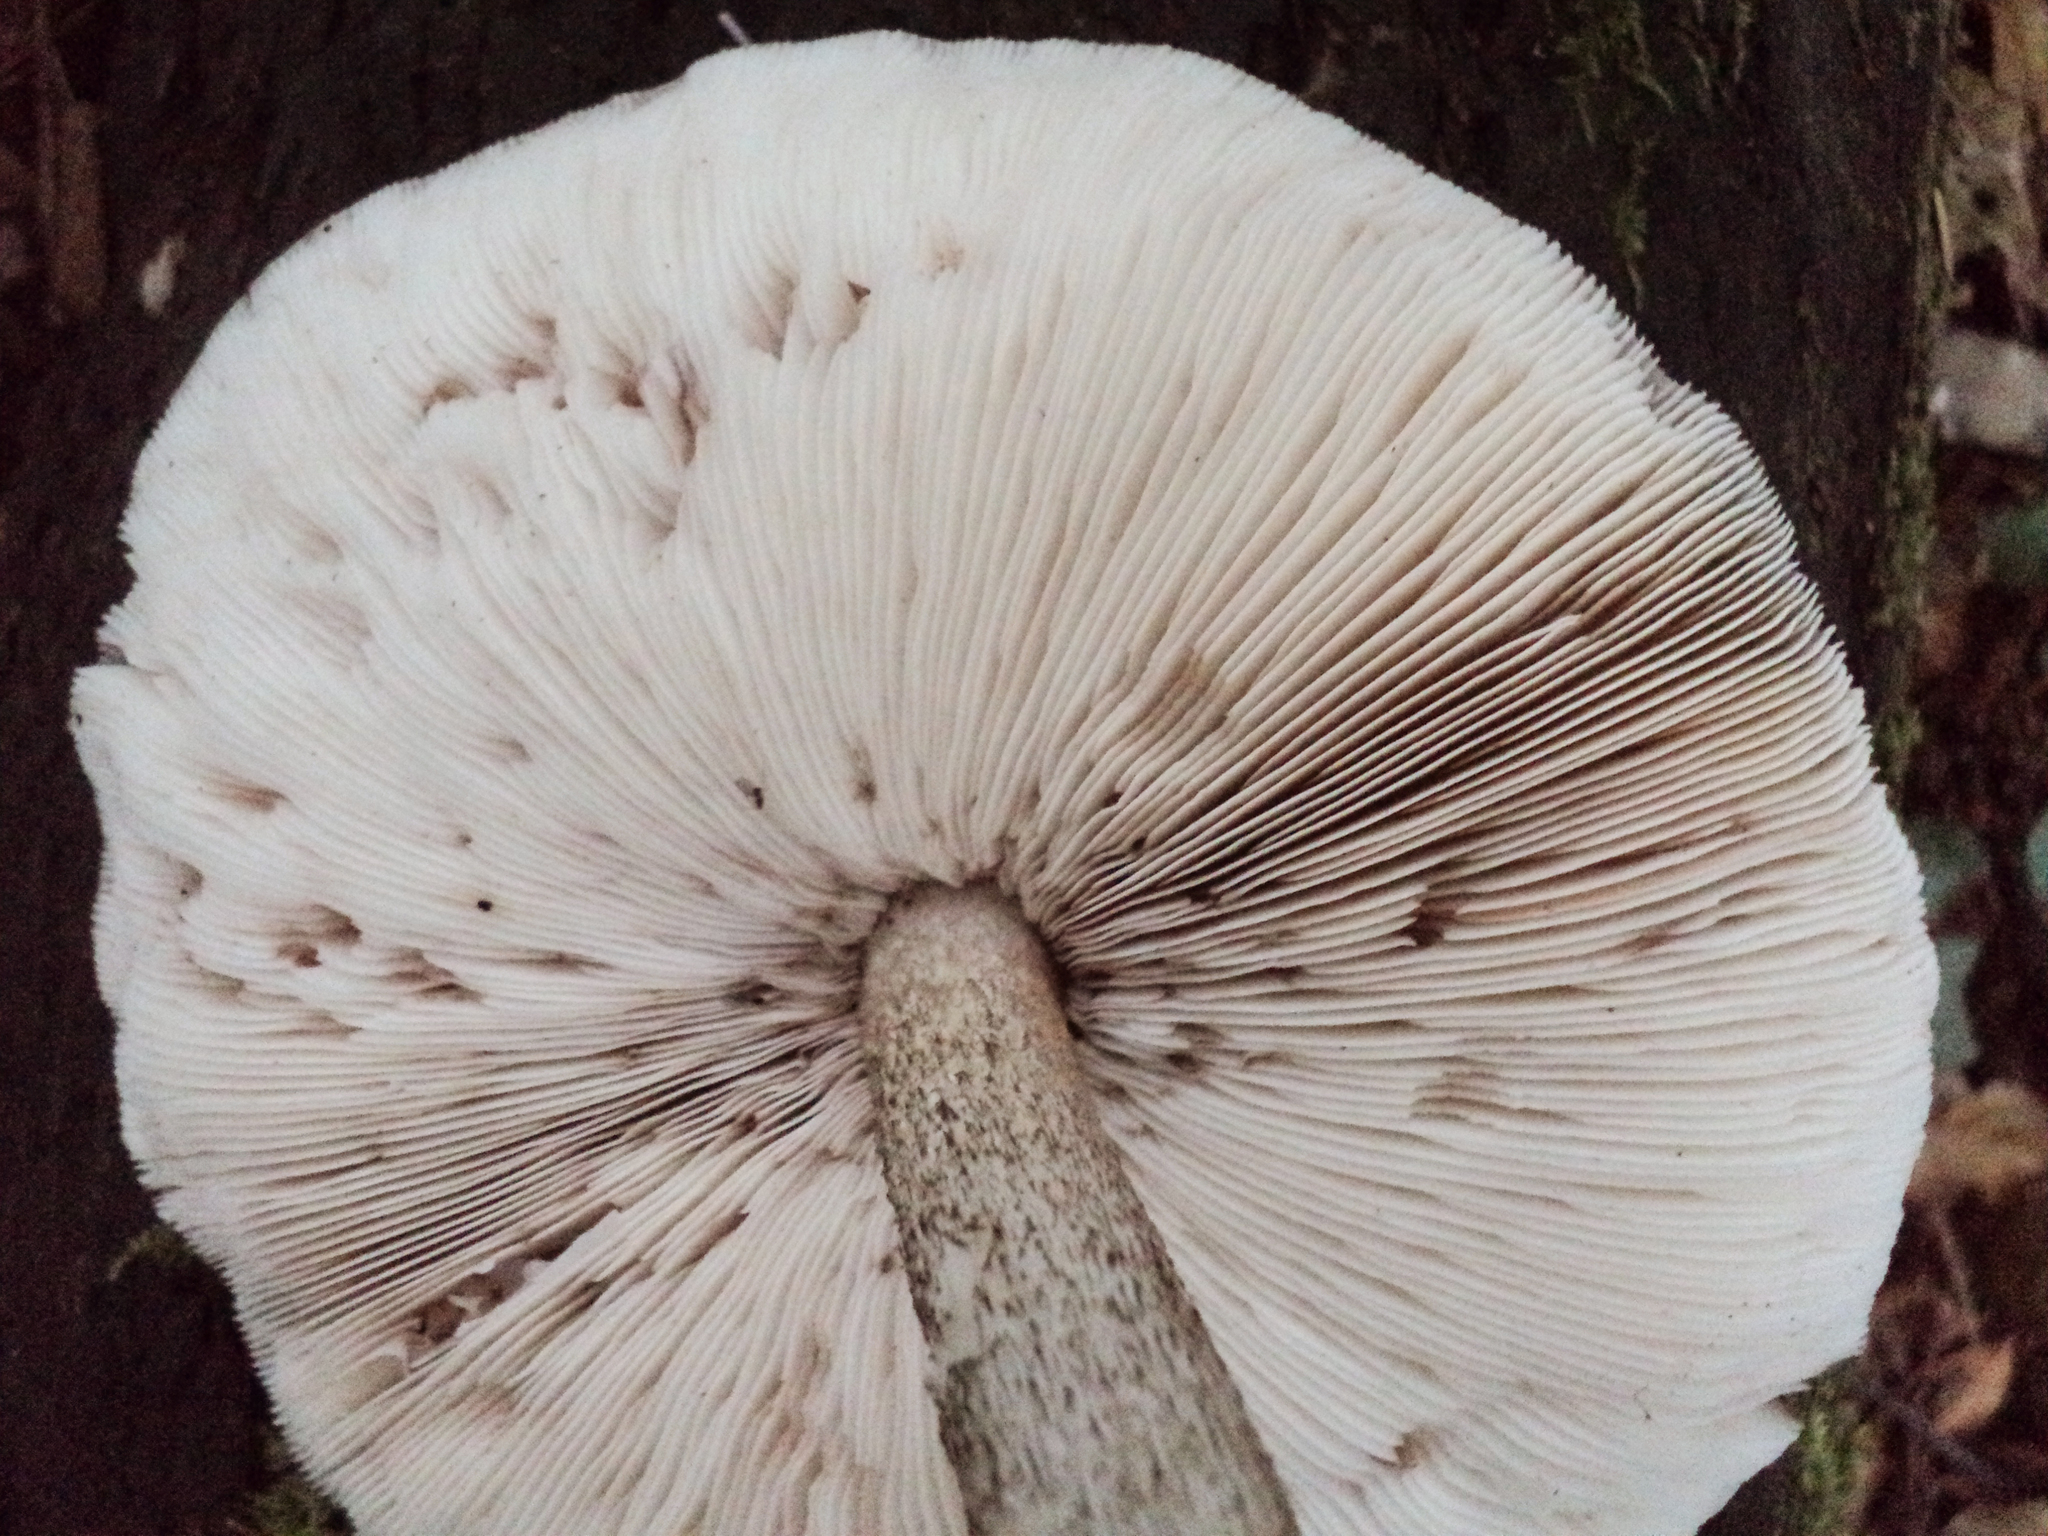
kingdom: Fungi
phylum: Basidiomycota
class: Agaricomycetes
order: Agaricales
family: Pluteaceae
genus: Pluteus
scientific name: Pluteus exilis
